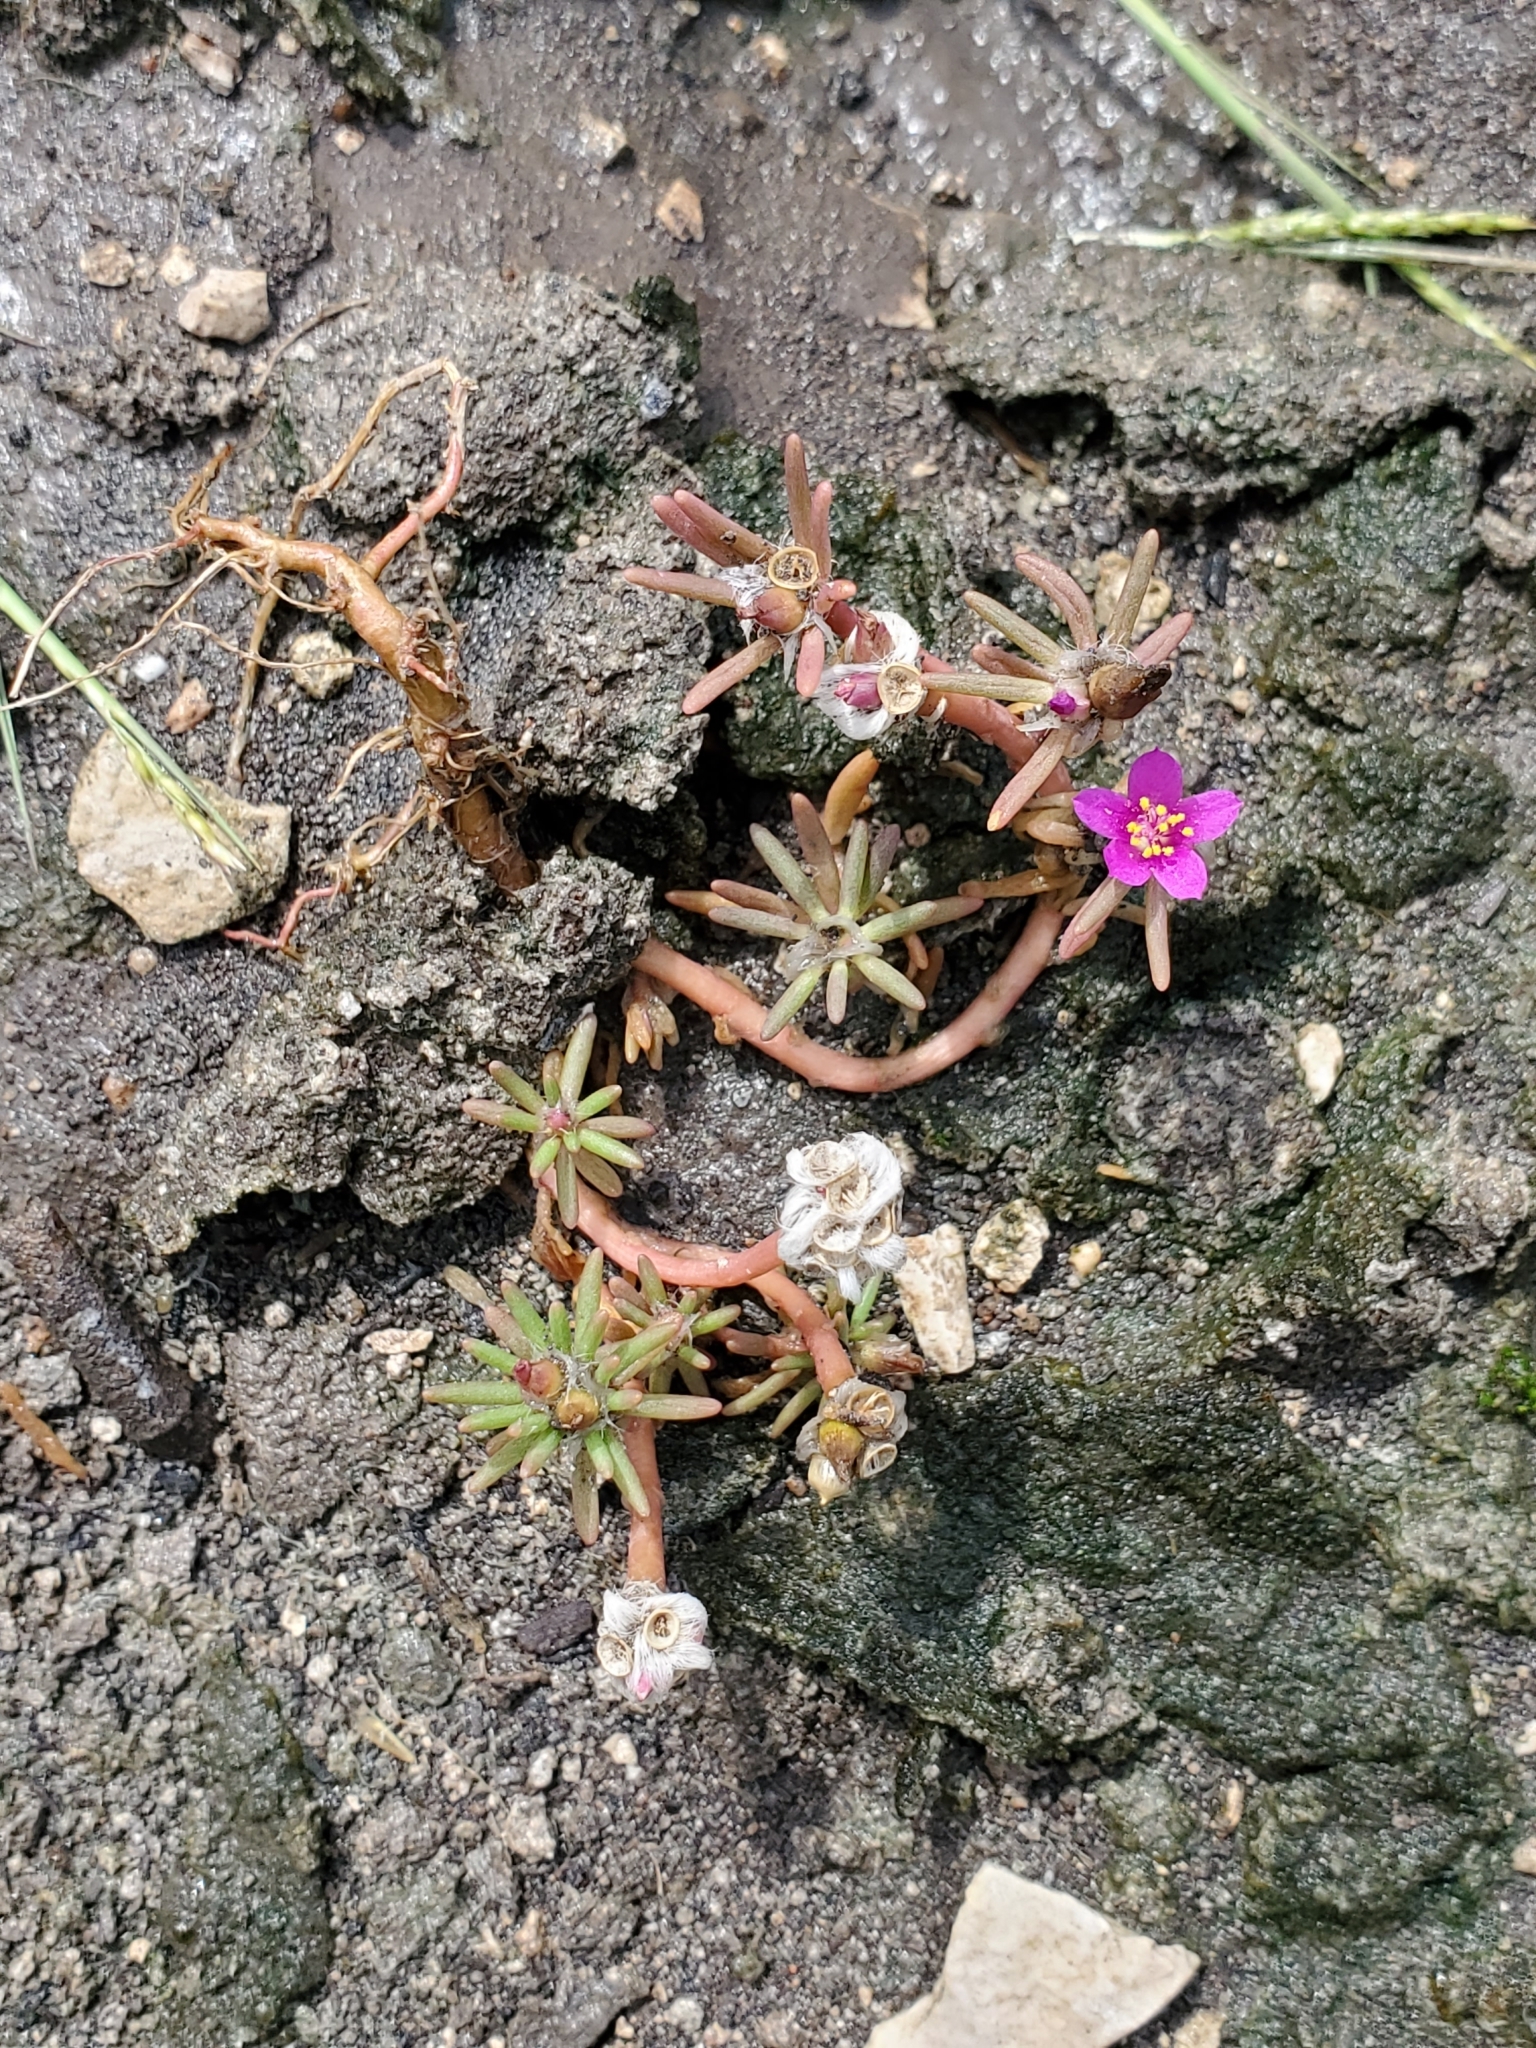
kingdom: Plantae
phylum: Tracheophyta
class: Magnoliopsida
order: Caryophyllales
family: Portulacaceae
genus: Portulaca
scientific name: Portulaca pilosa
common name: Kiss me quick
